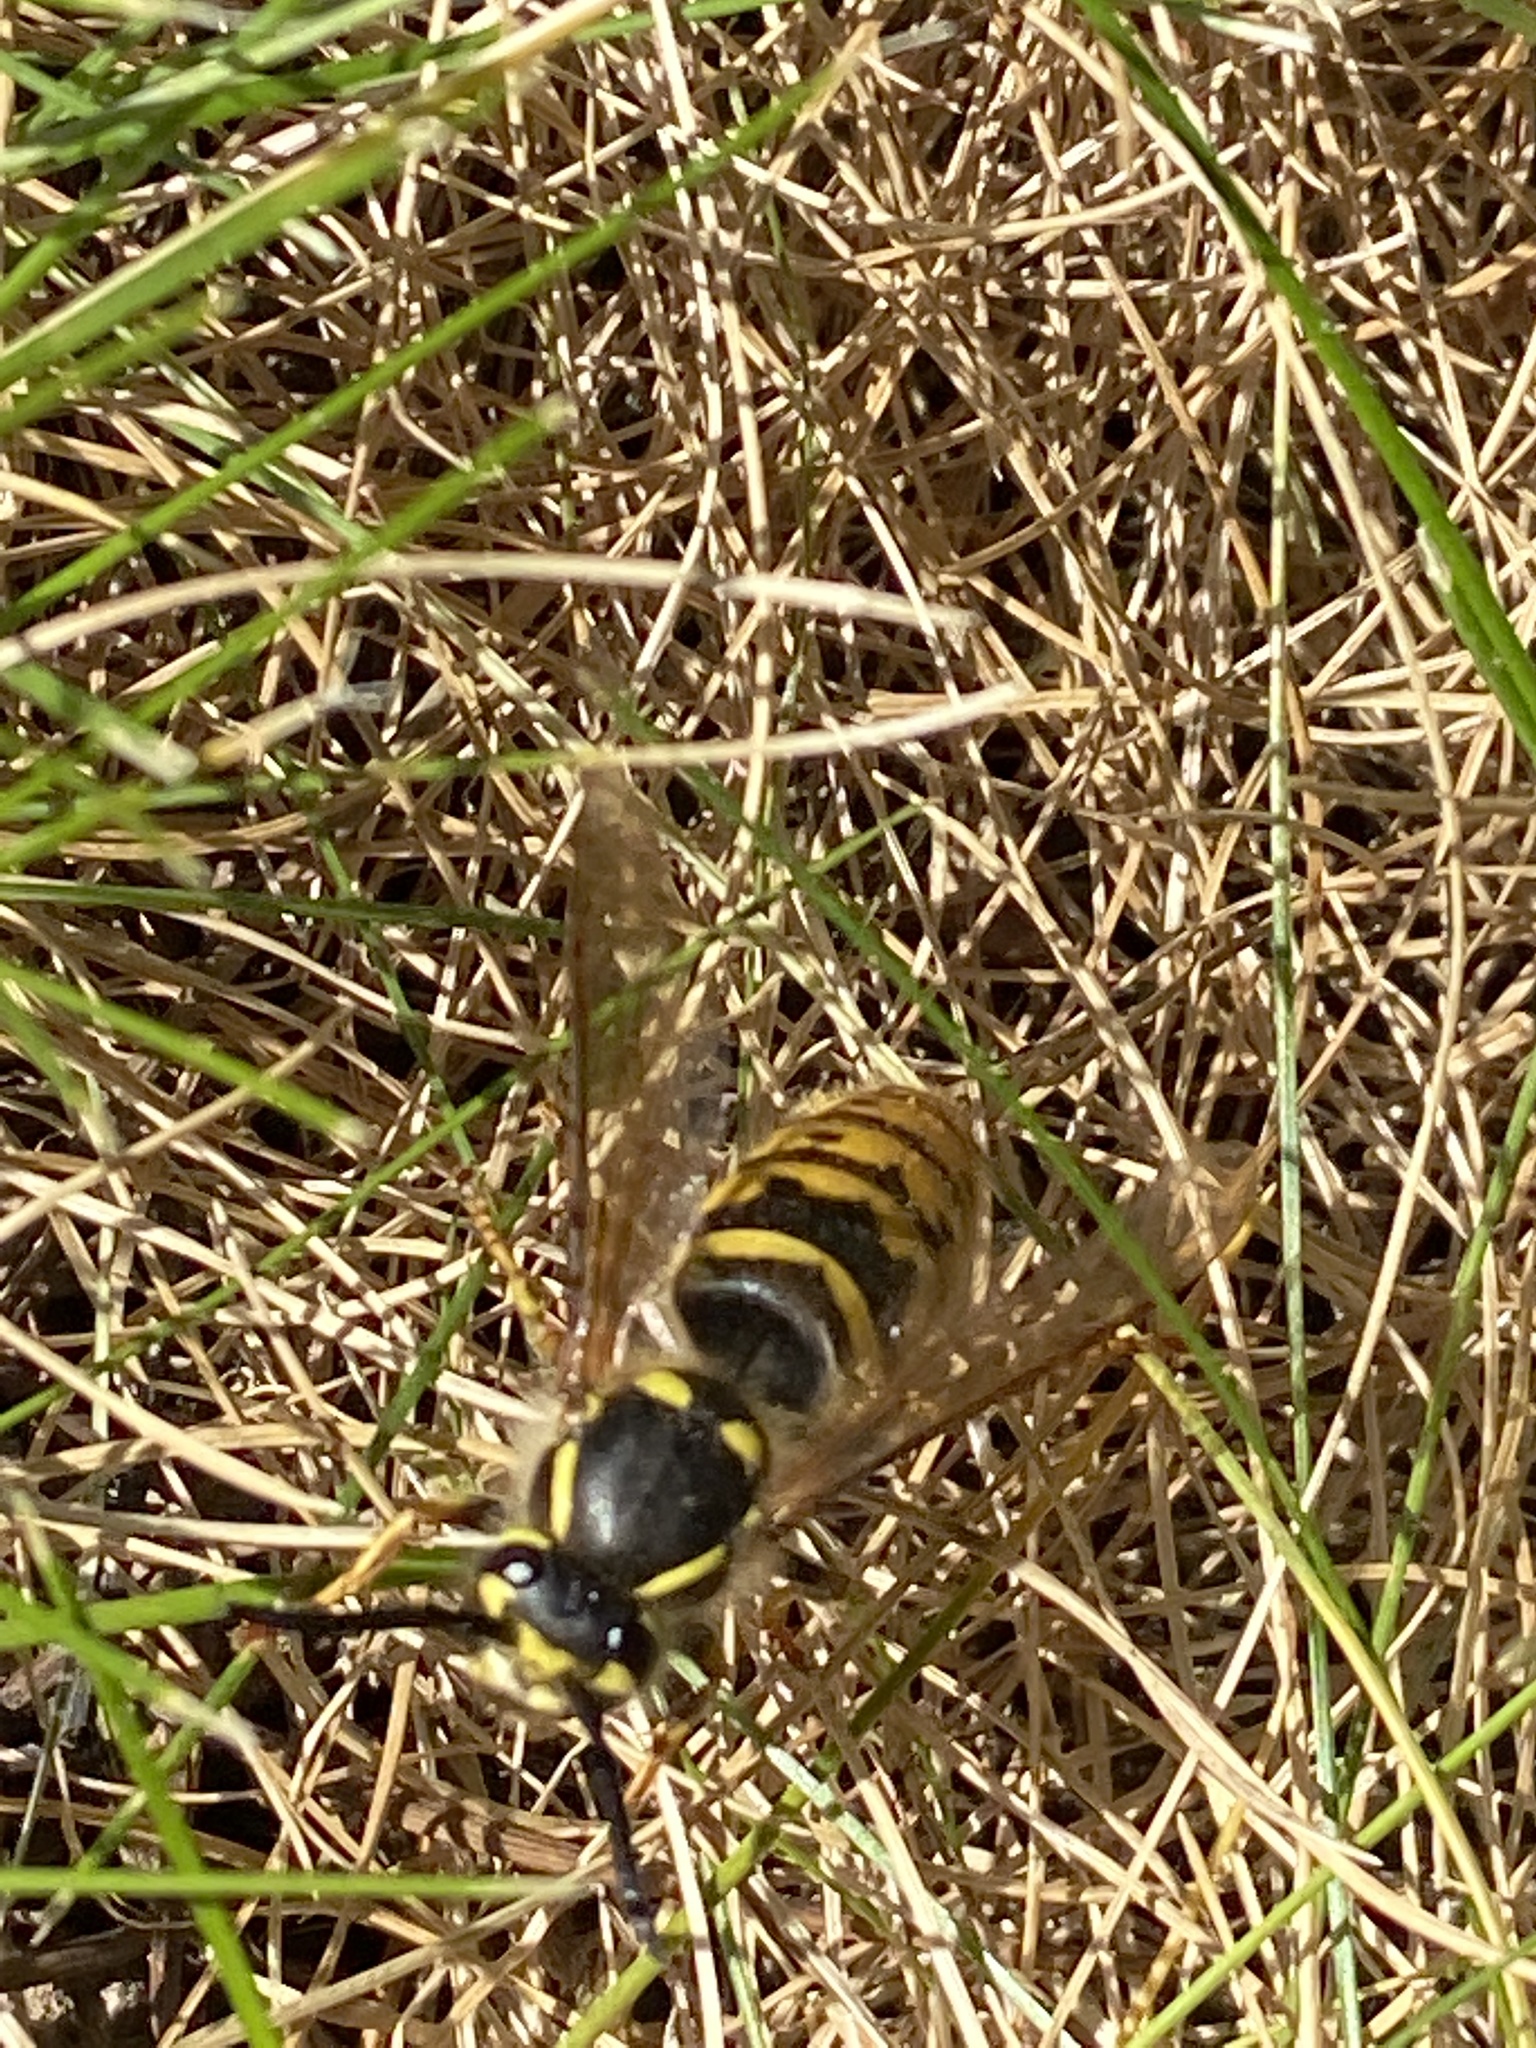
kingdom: Animalia
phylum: Arthropoda
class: Insecta
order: Hymenoptera
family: Vespidae
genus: Vespula
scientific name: Vespula vulgaris
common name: Common wasp
